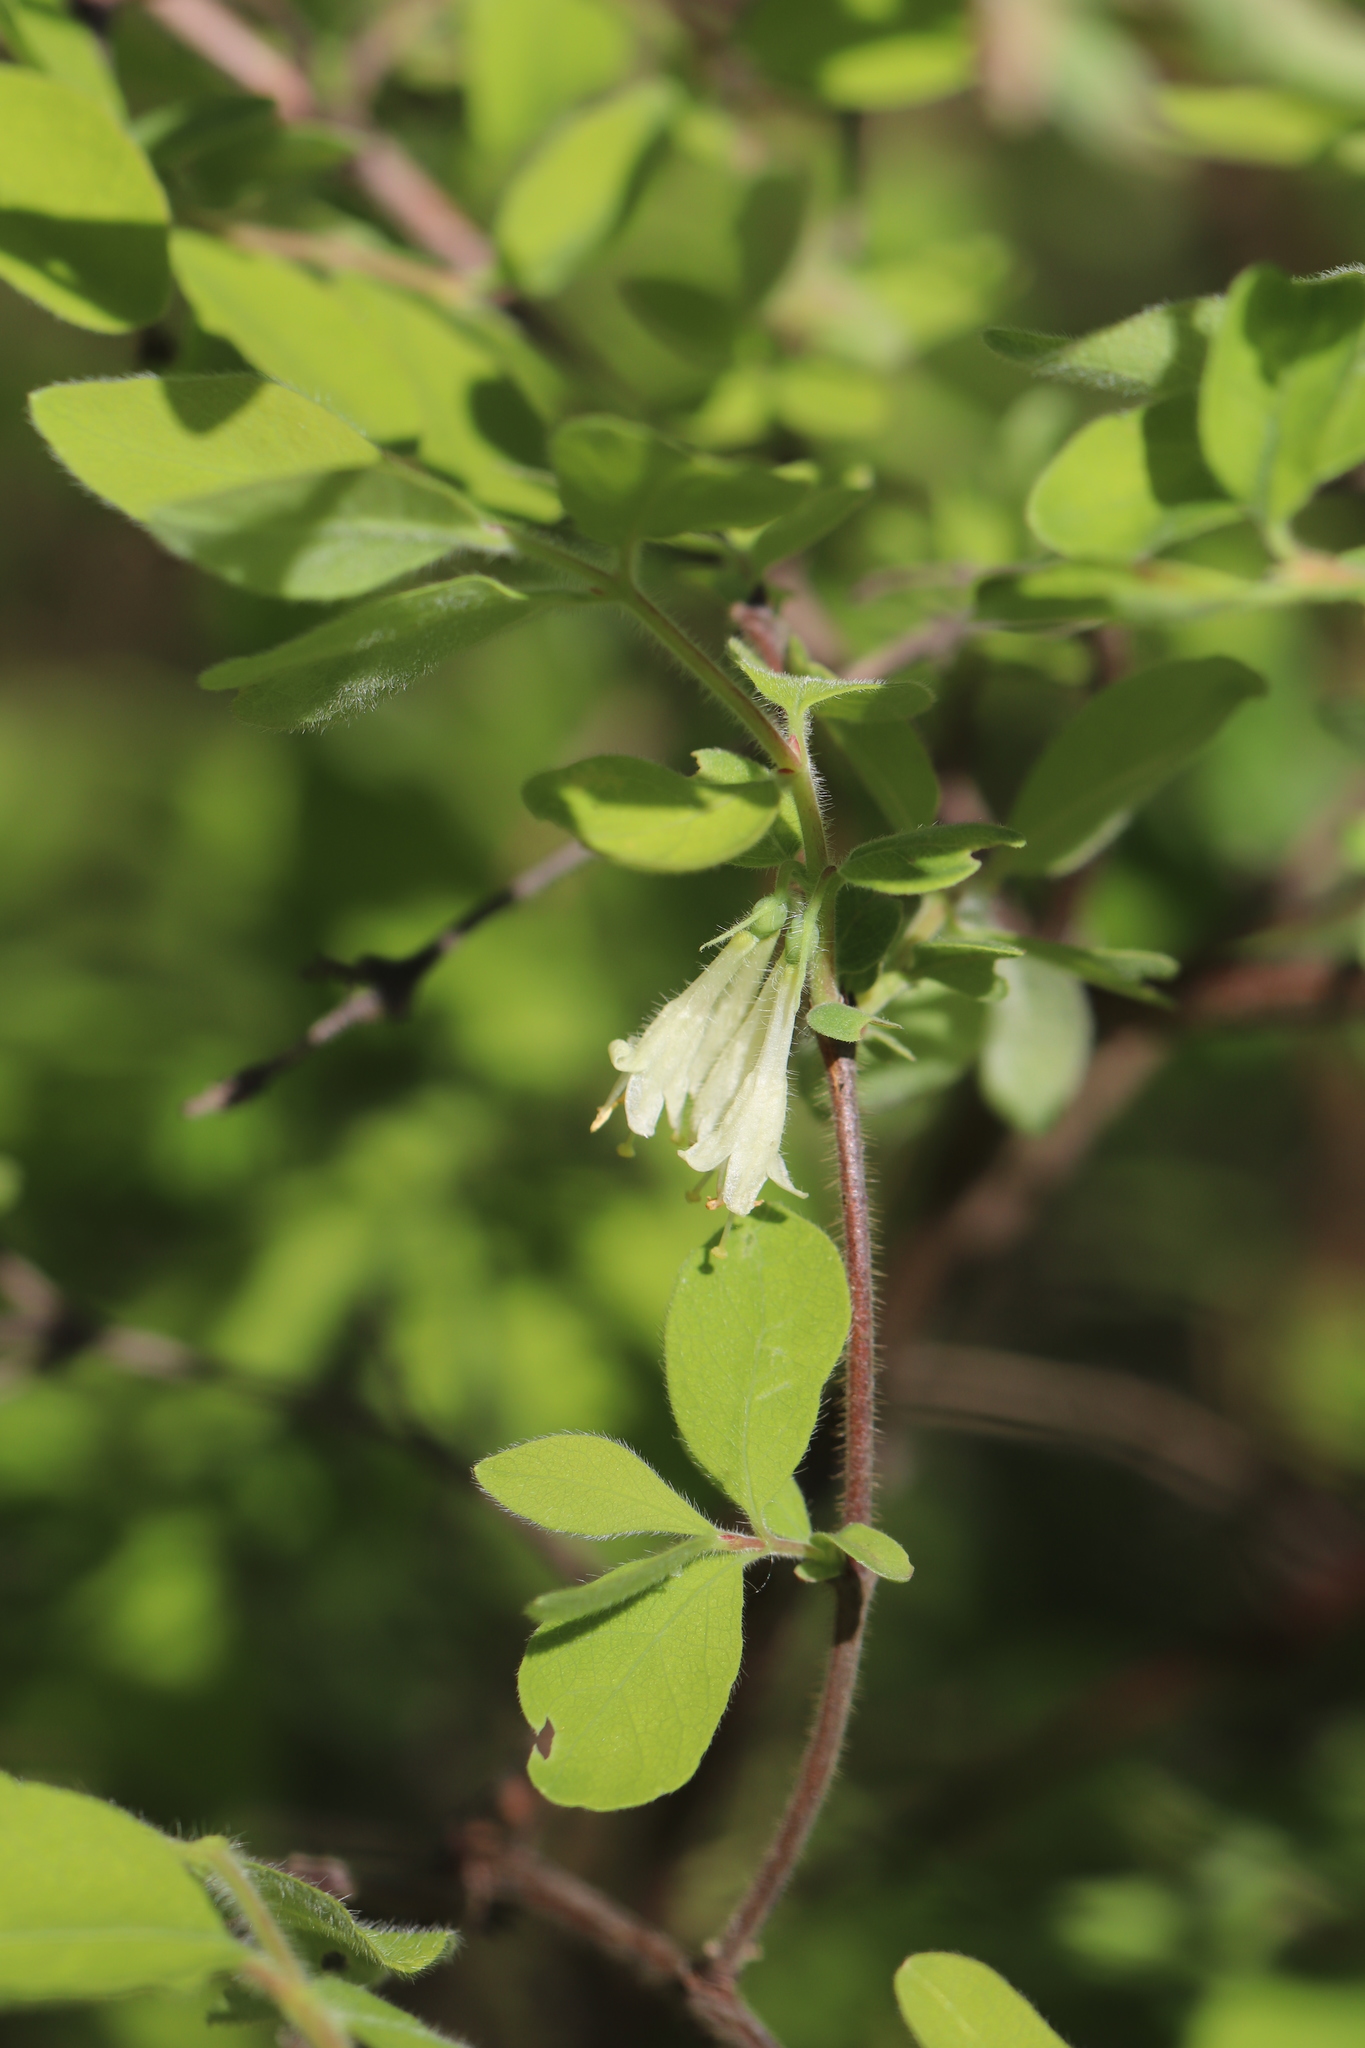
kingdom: Plantae
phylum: Tracheophyta
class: Magnoliopsida
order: Dipsacales
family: Caprifoliaceae
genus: Lonicera
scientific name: Lonicera caerulea
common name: Blue honeysuckle
